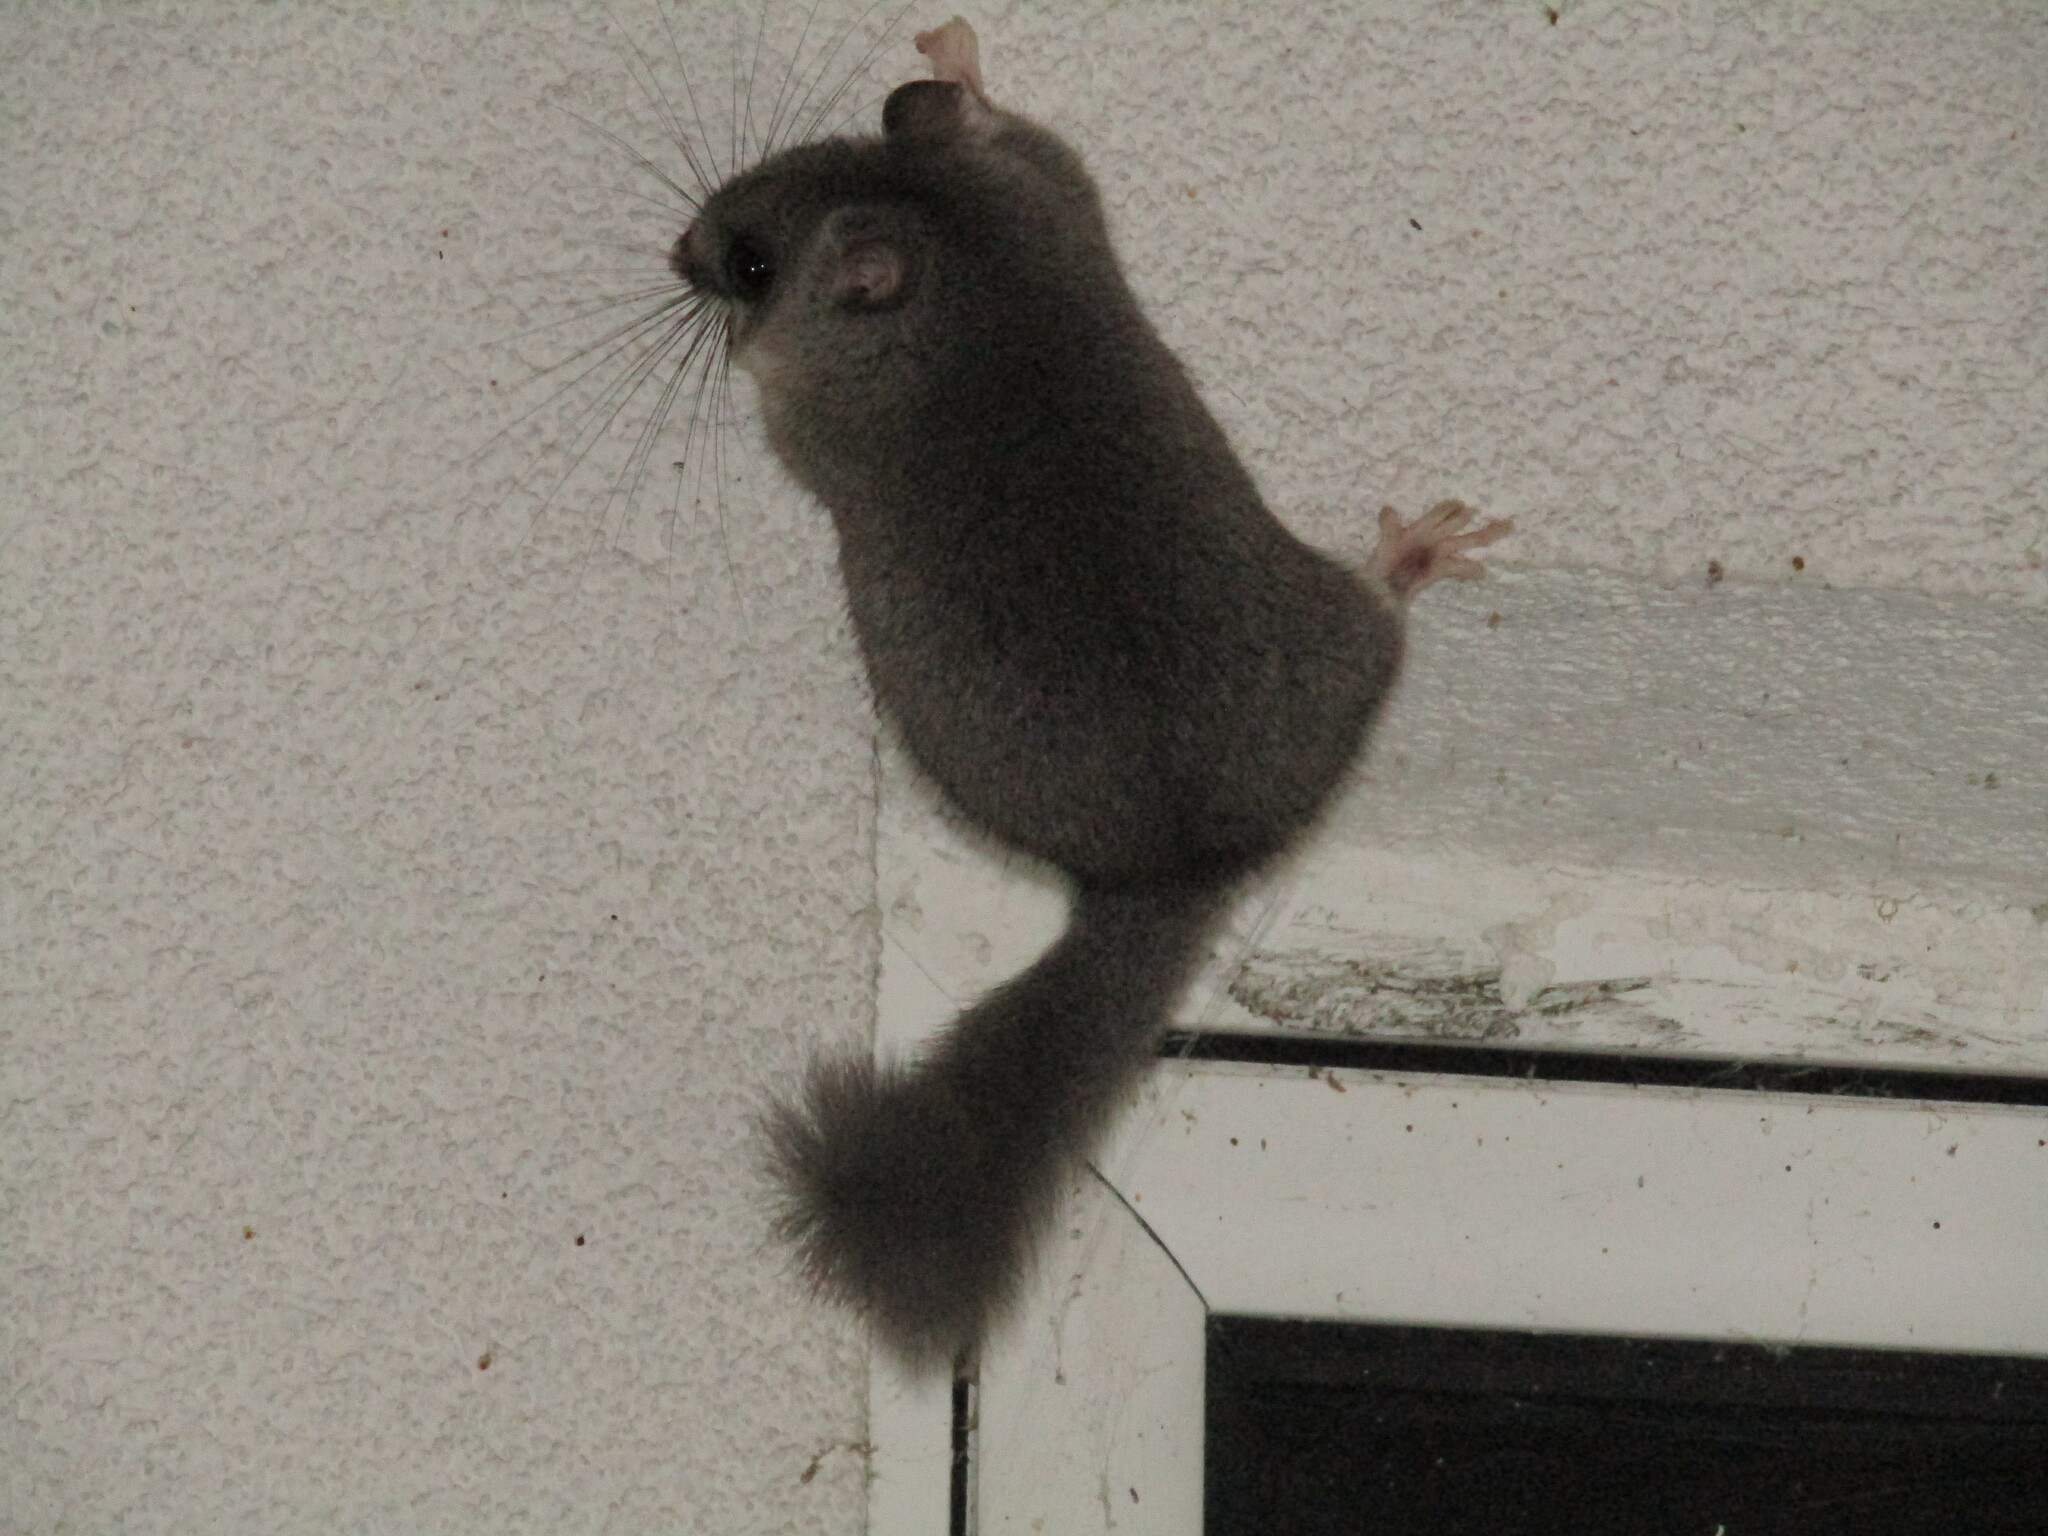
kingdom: Animalia
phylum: Chordata
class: Mammalia
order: Rodentia
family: Gliridae
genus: Glis
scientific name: Glis glis
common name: Fat dormouse
